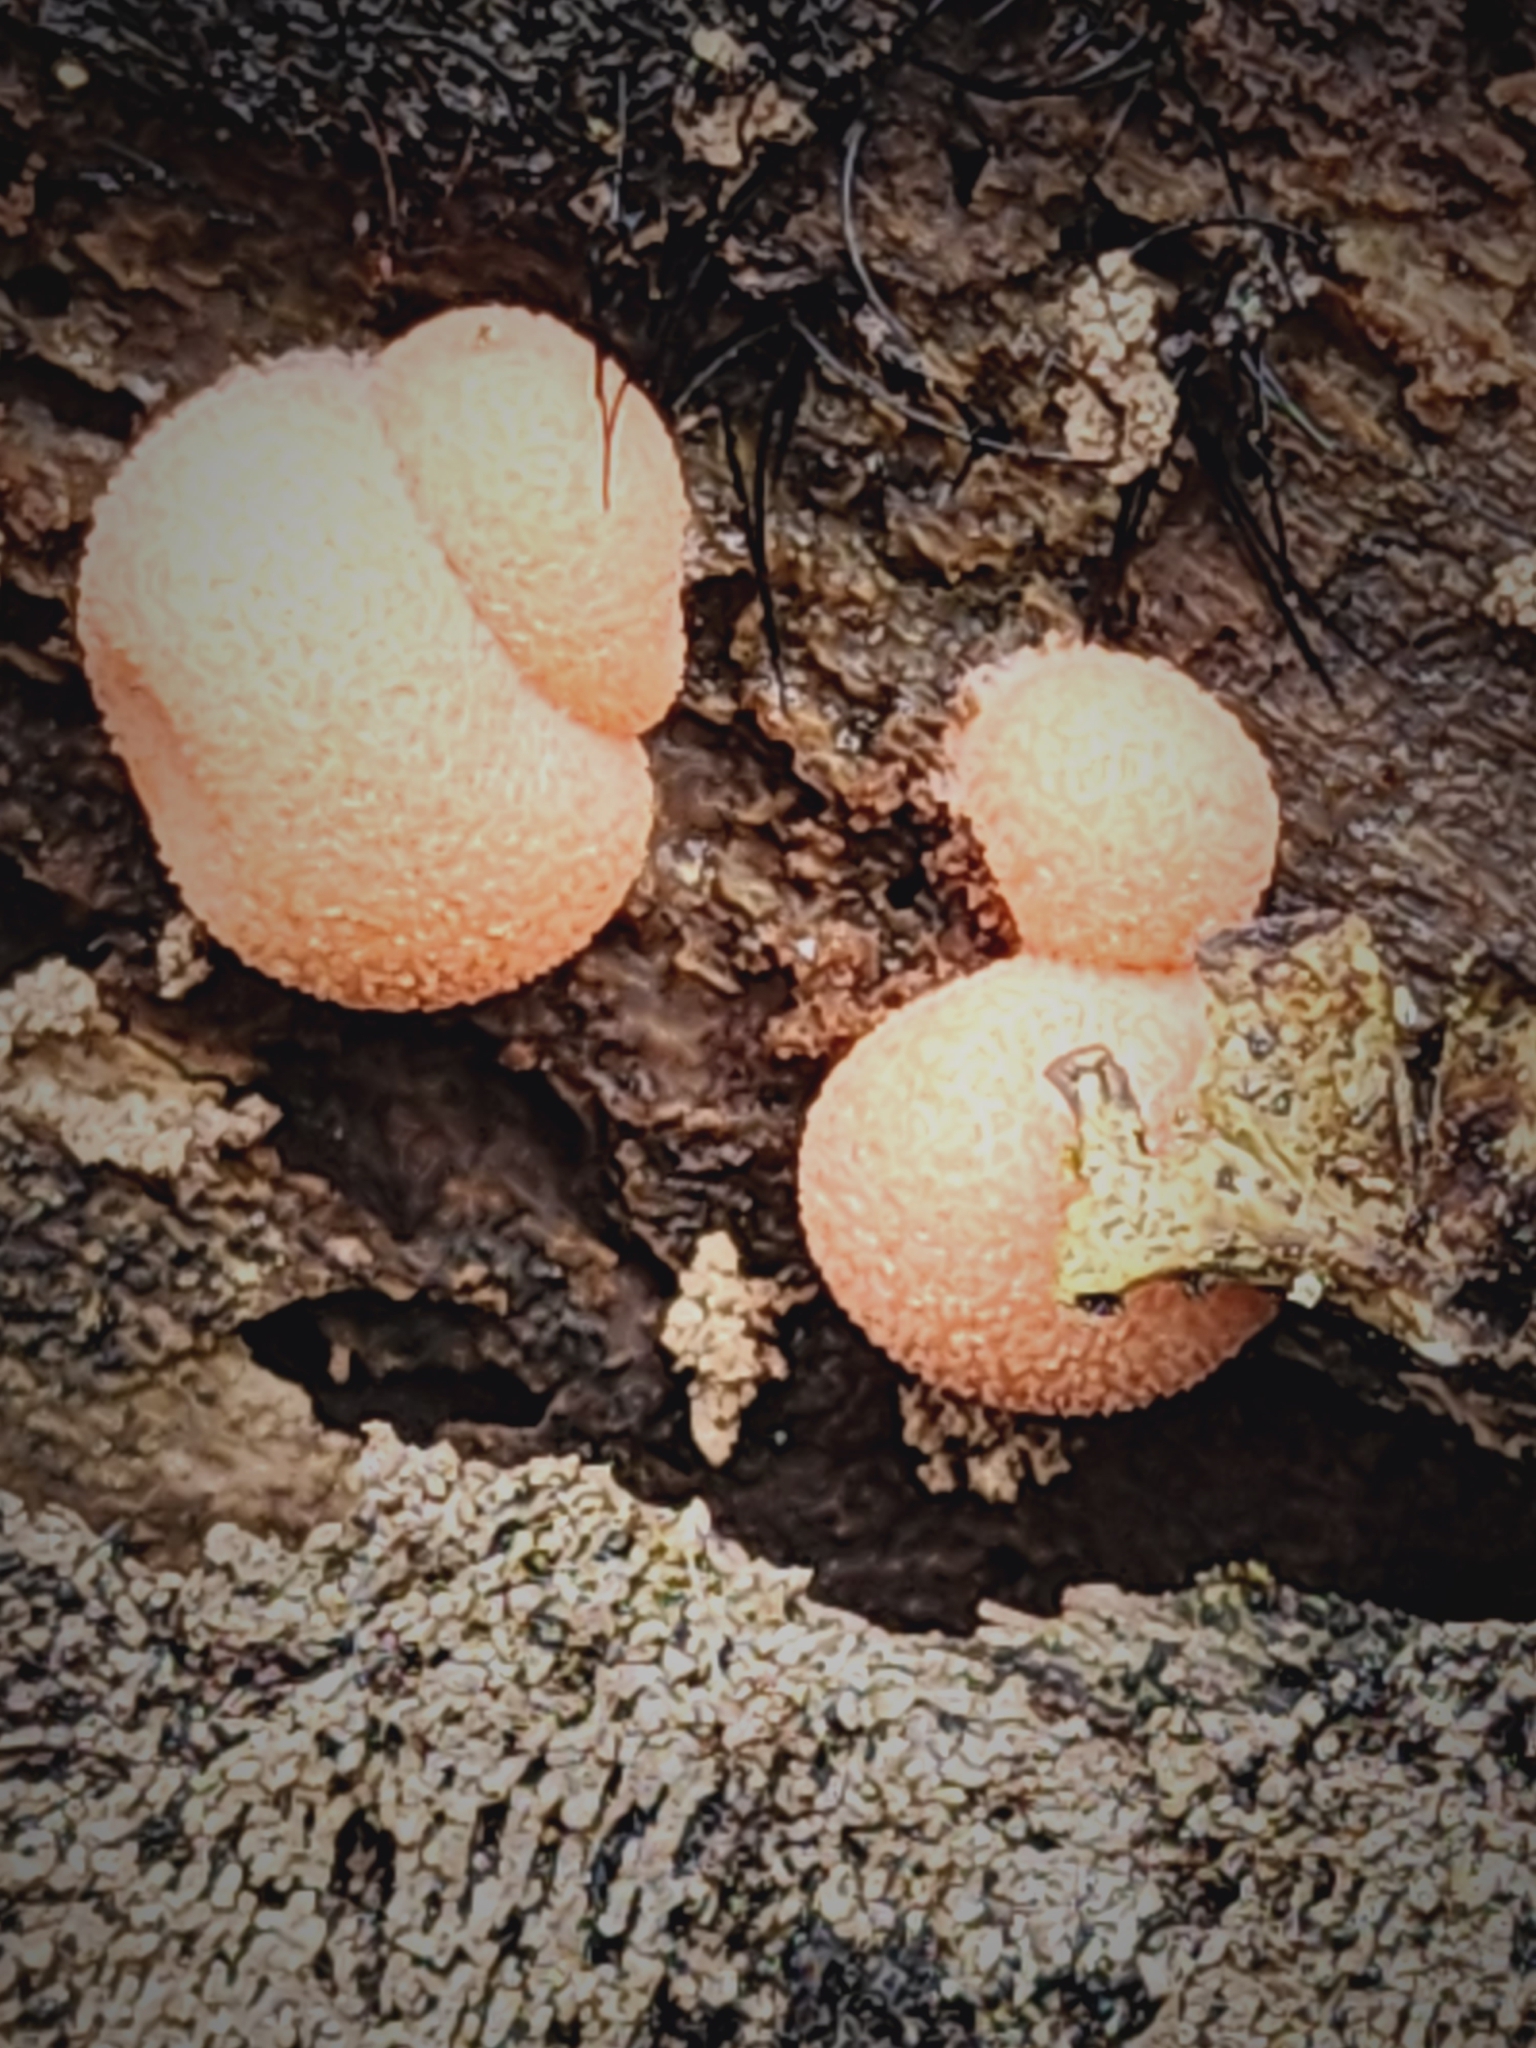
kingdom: Protozoa
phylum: Mycetozoa
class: Myxomycetes
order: Cribrariales
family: Tubiferaceae
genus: Lycogala
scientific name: Lycogala epidendrum
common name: Wolf's milk
